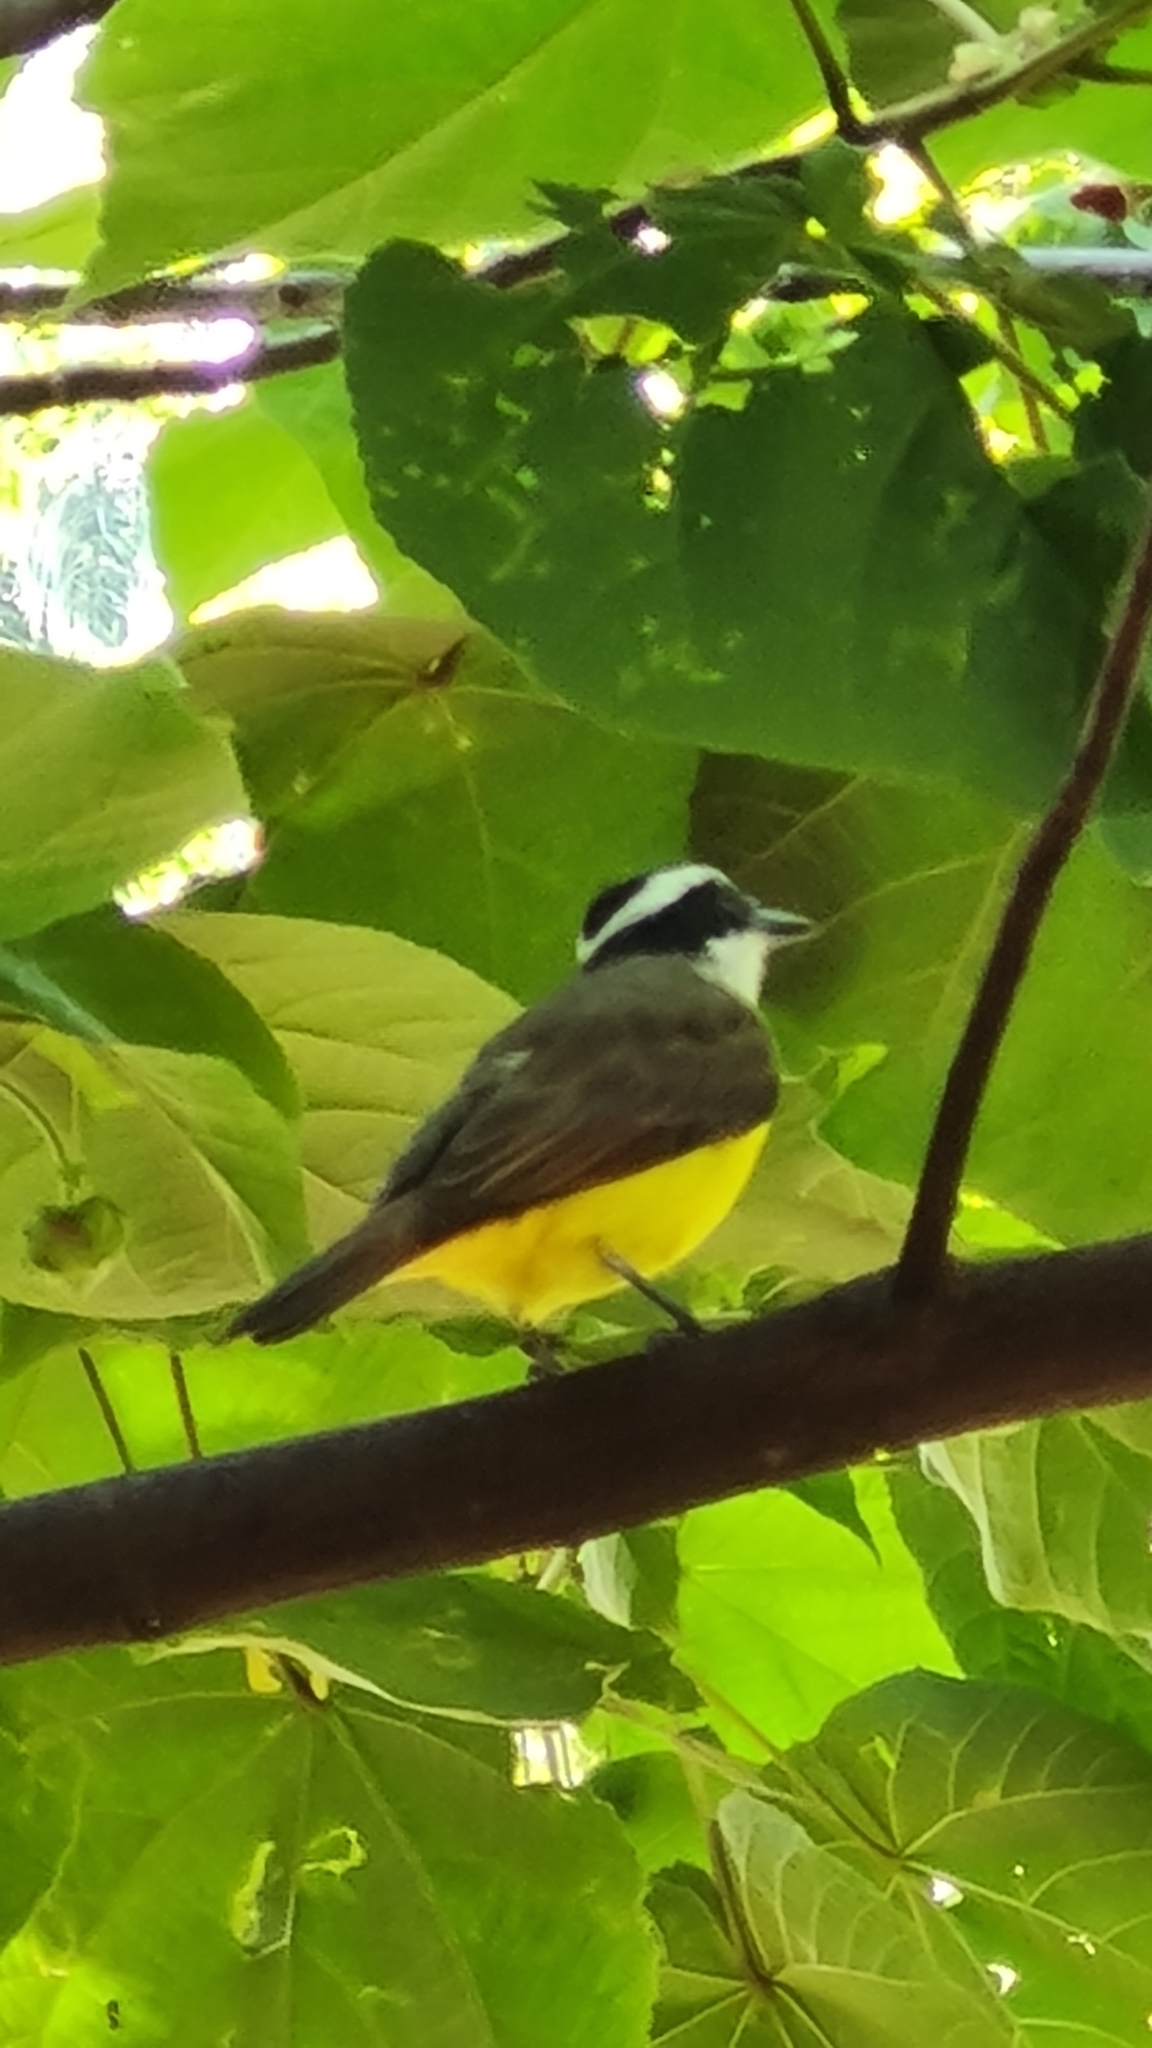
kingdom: Animalia
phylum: Chordata
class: Aves
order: Passeriformes
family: Tyrannidae
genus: Pitangus
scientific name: Pitangus sulphuratus
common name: Great kiskadee
